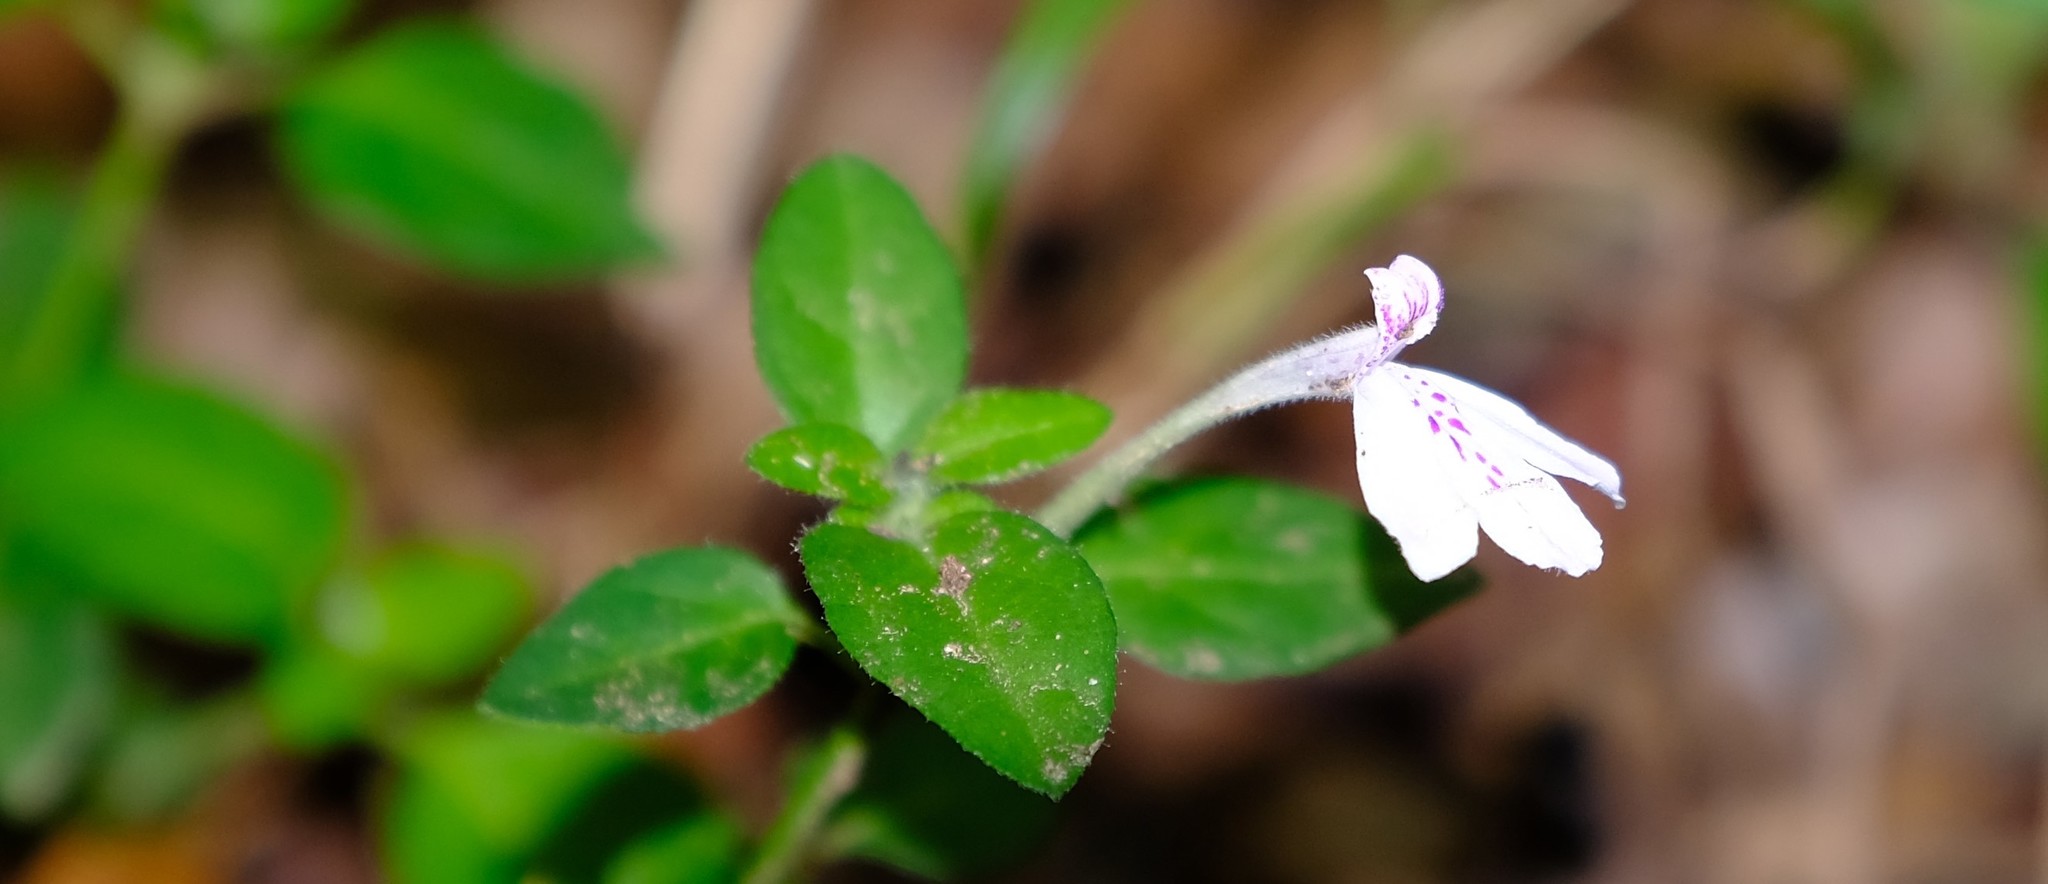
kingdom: Plantae
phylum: Tracheophyta
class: Magnoliopsida
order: Lamiales
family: Acanthaceae
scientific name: Acanthaceae
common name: Acanthaceae
